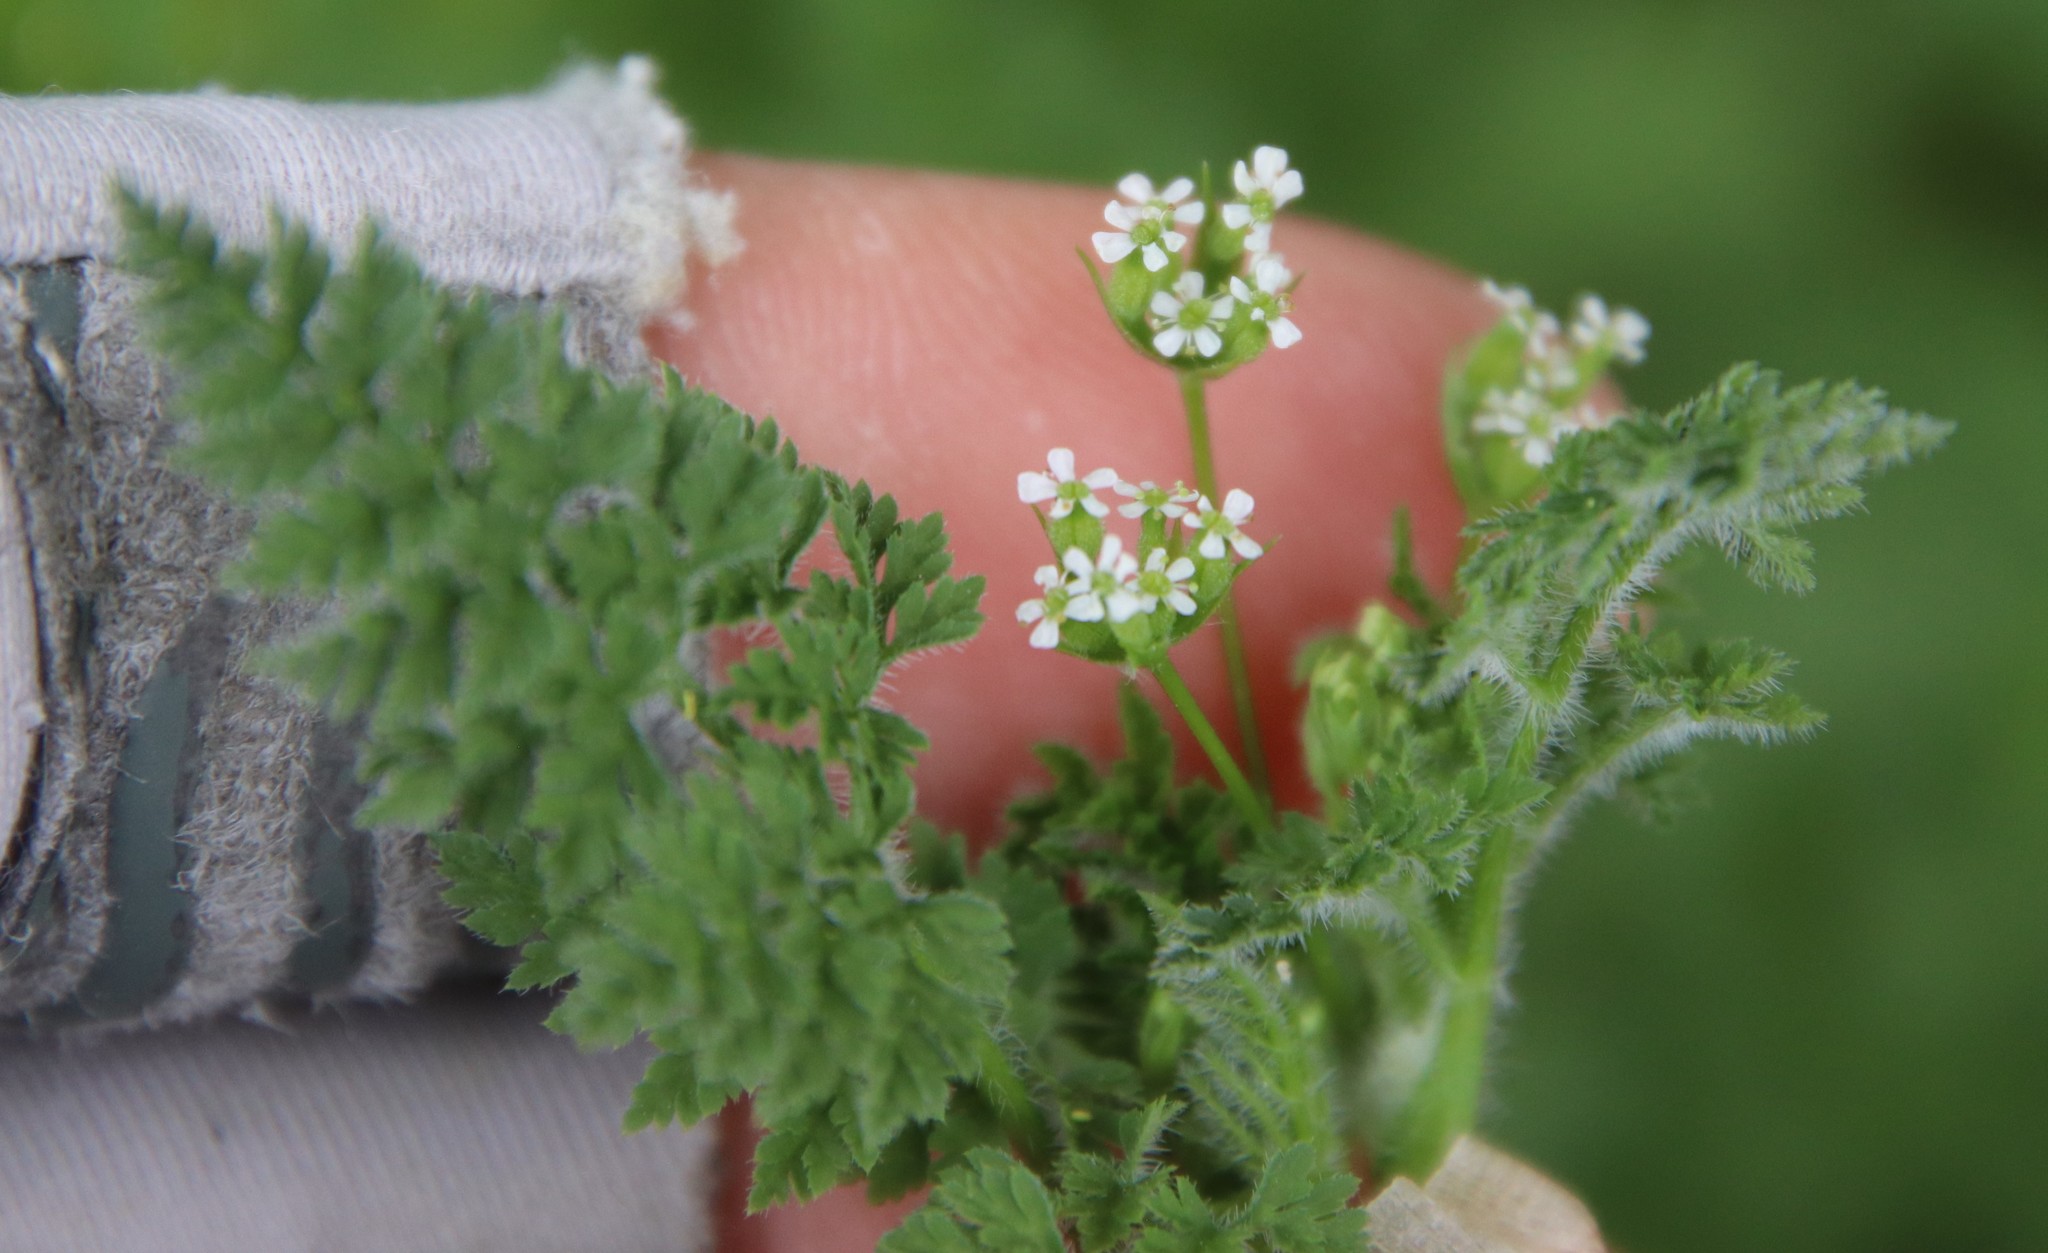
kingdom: Plantae
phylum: Tracheophyta
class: Magnoliopsida
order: Apiales
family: Apiaceae
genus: Anthriscus
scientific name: Anthriscus caucalis
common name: Bur chervil
